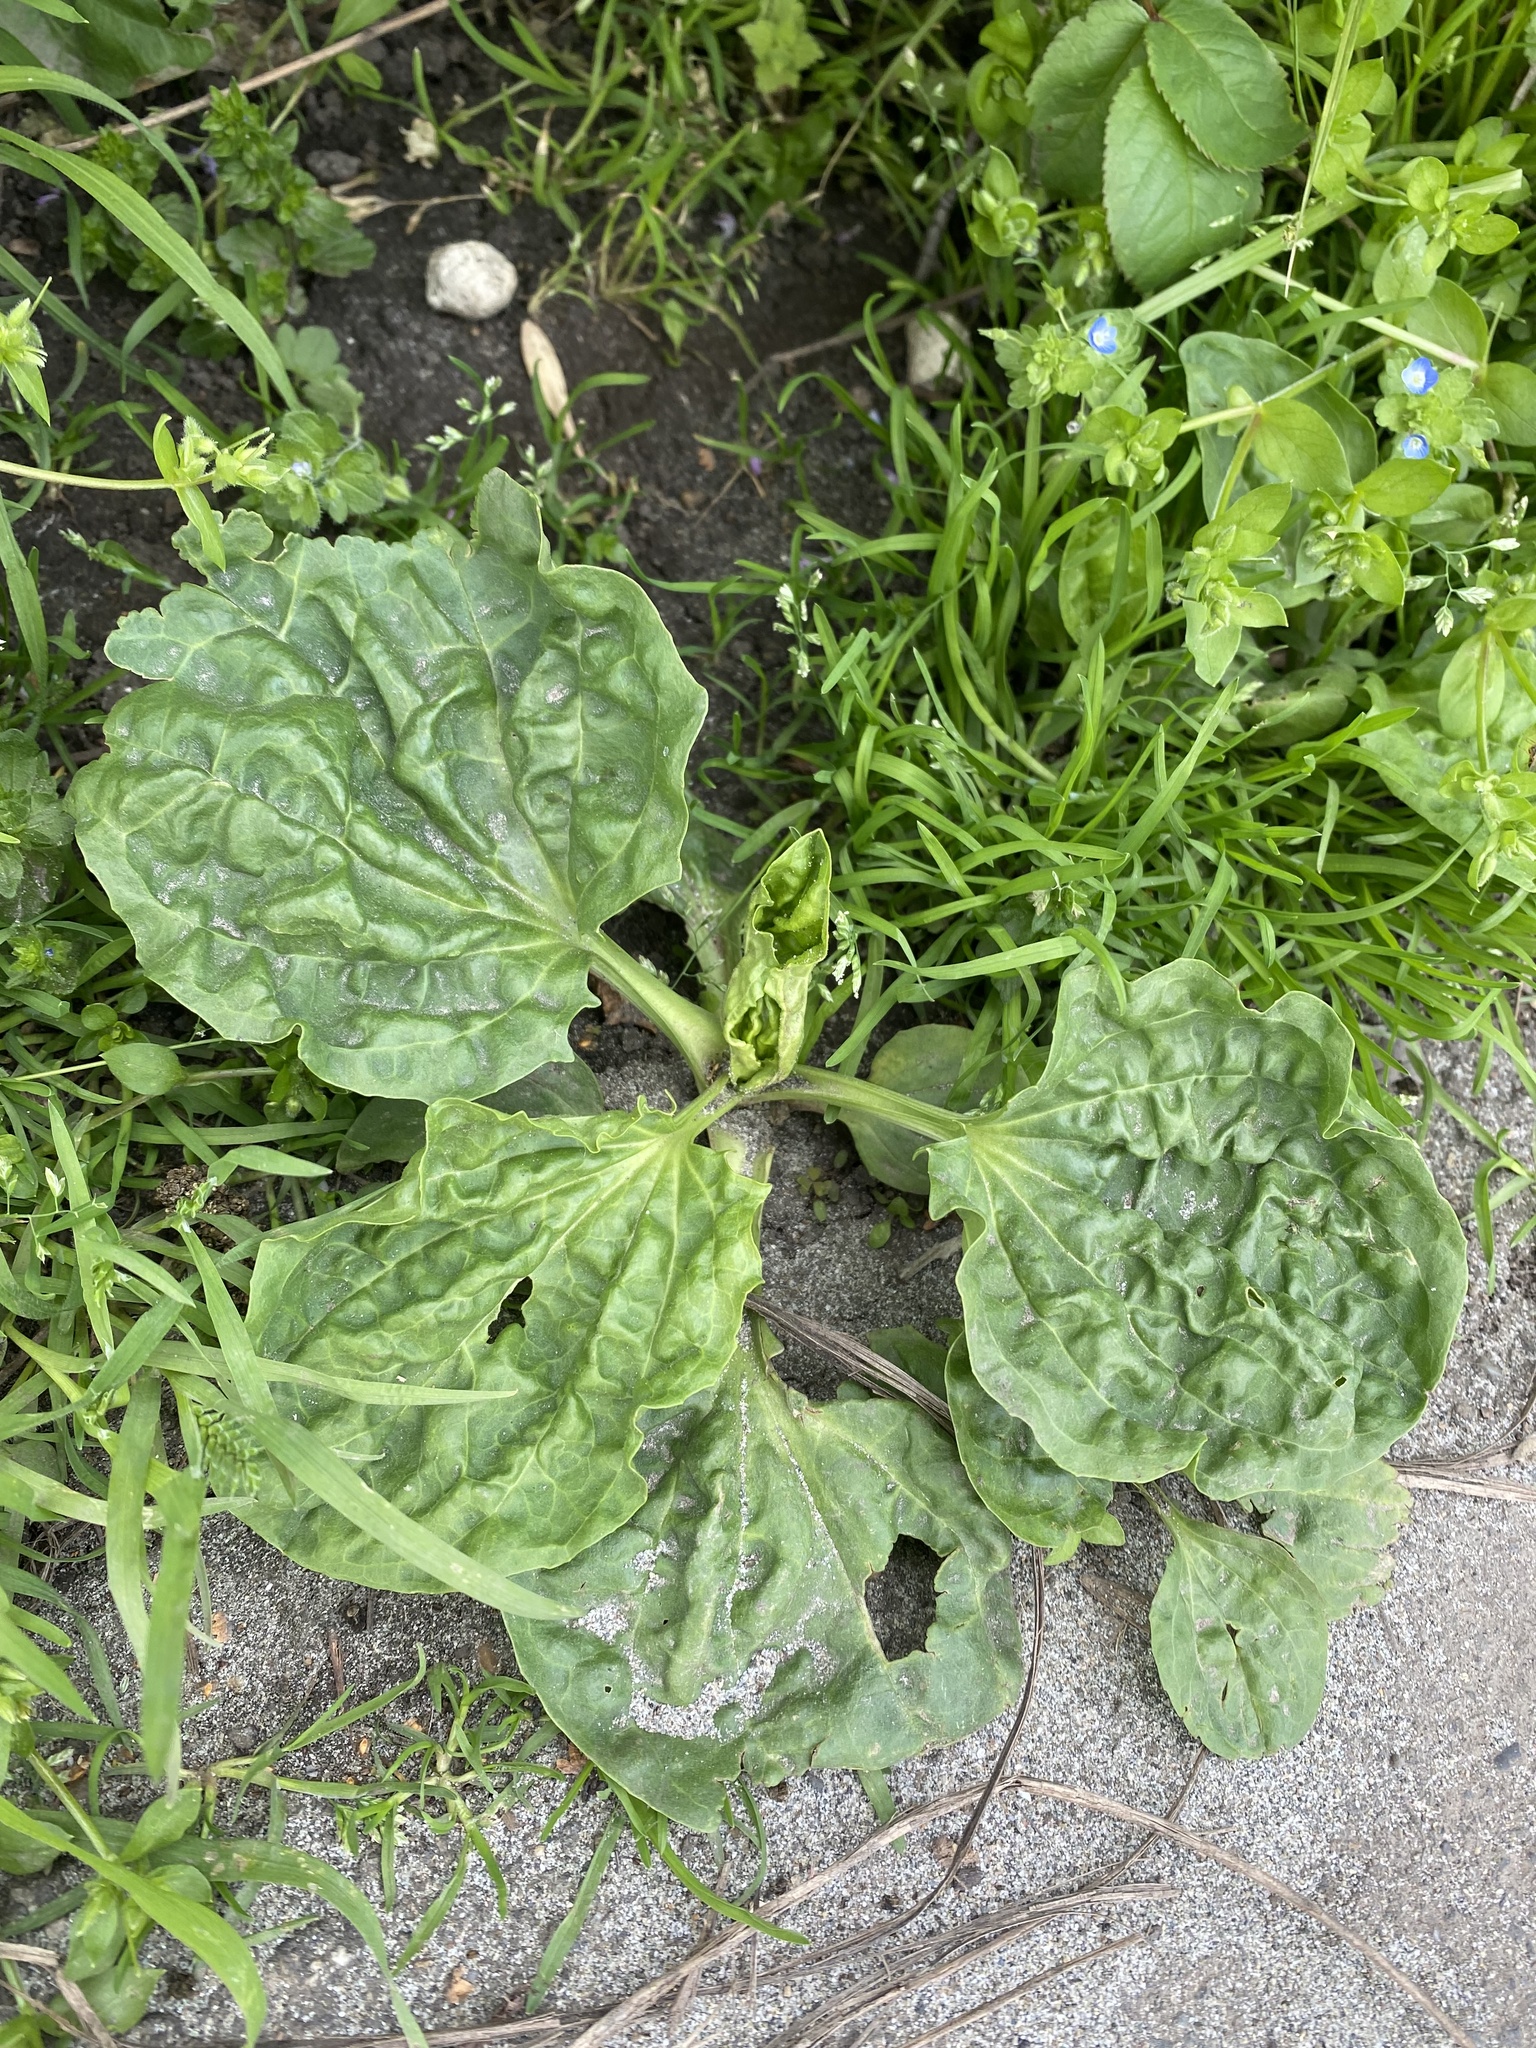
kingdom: Plantae
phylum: Tracheophyta
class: Magnoliopsida
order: Lamiales
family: Plantaginaceae
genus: Plantago
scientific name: Plantago major
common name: Common plantain
